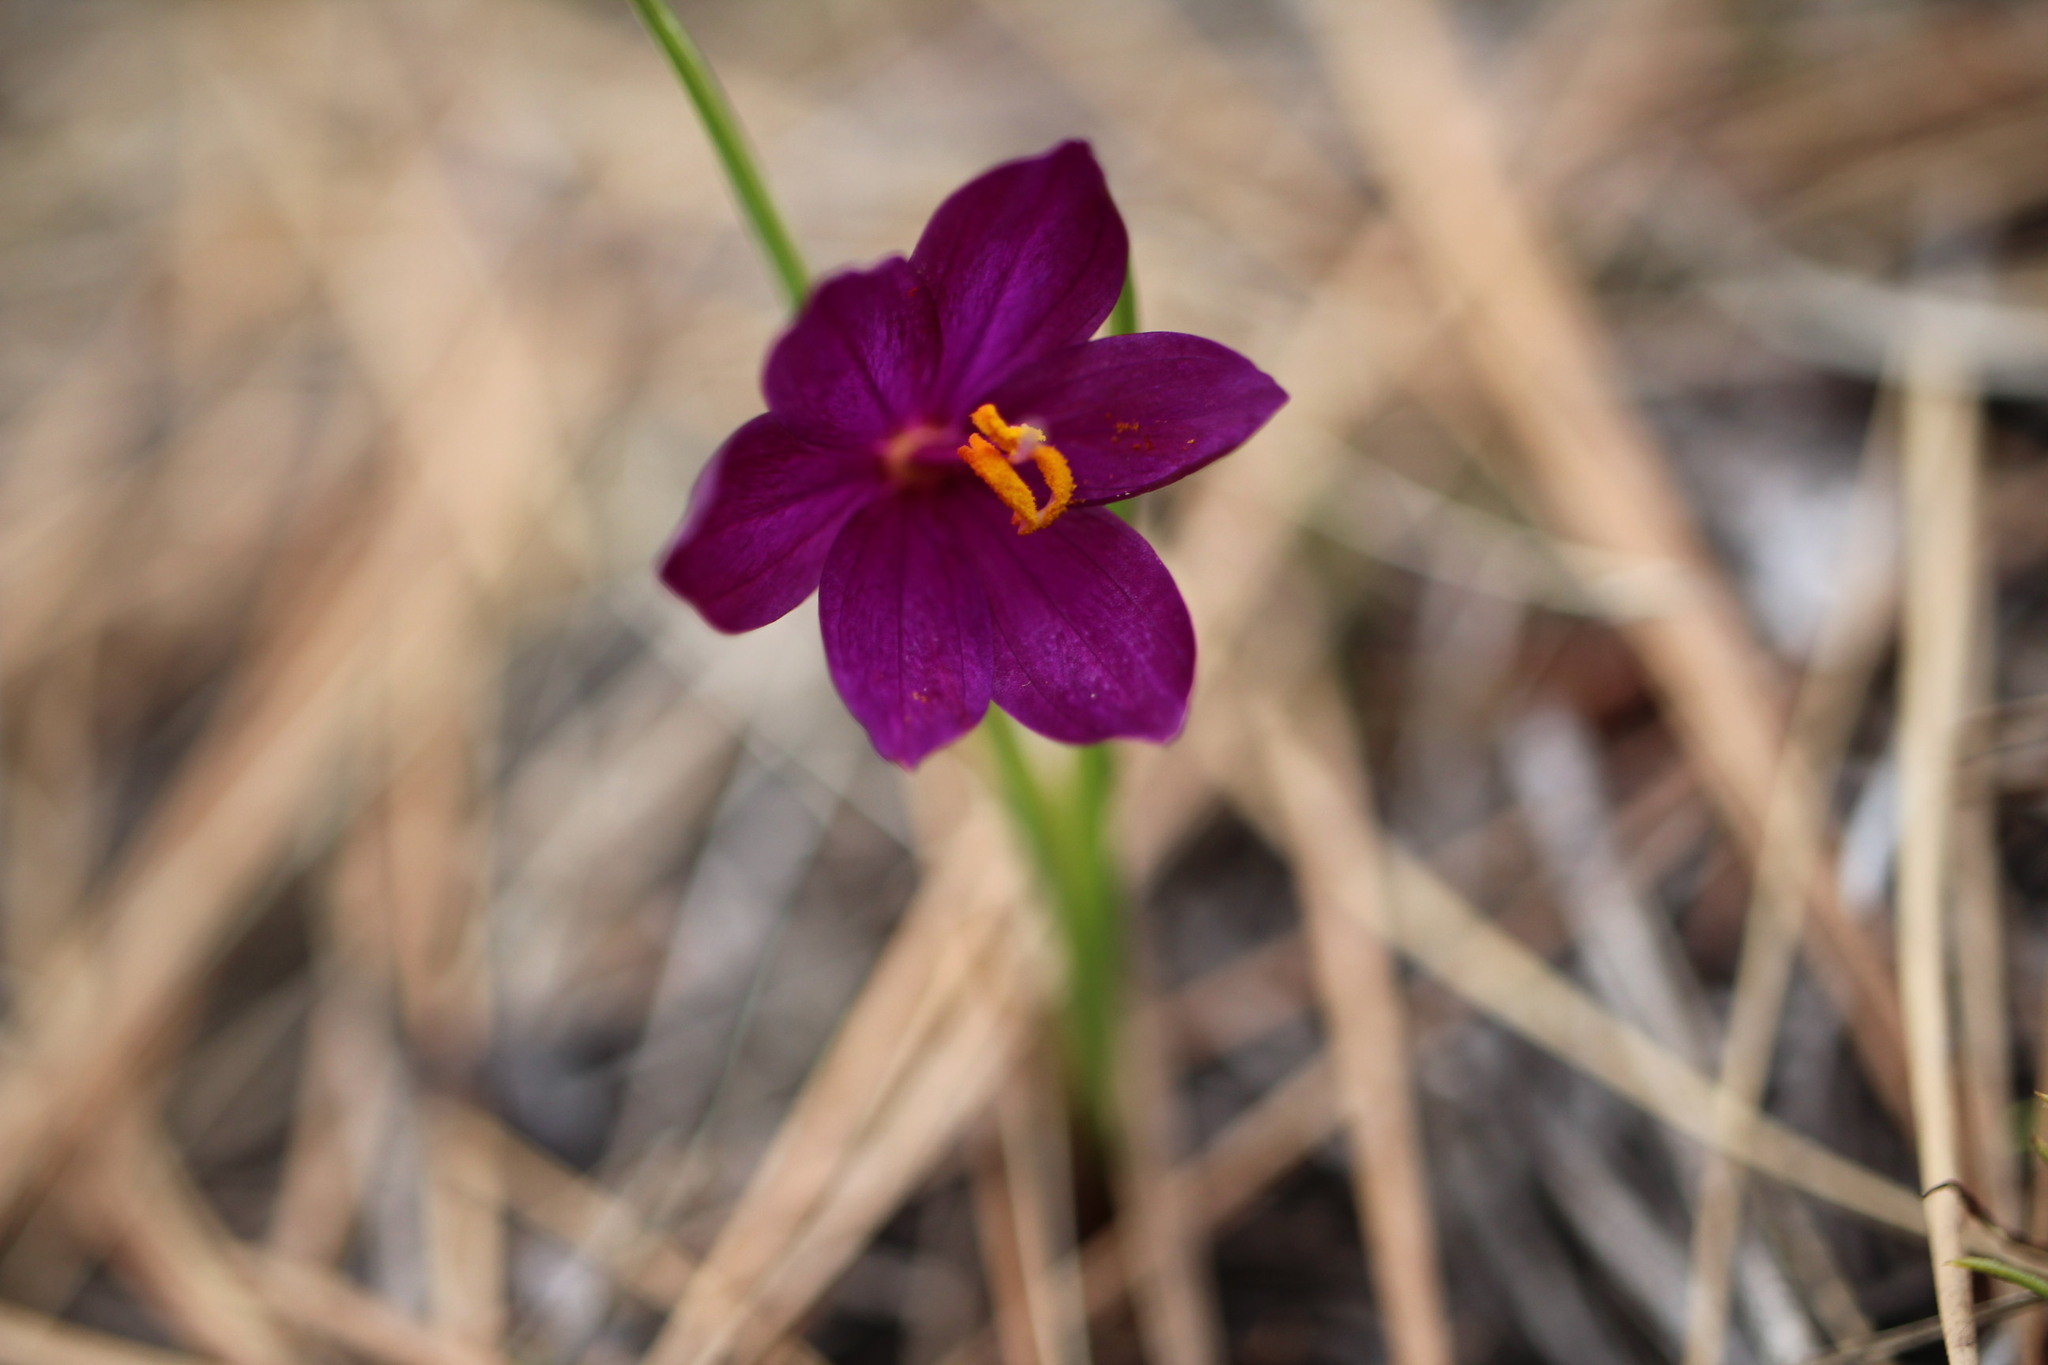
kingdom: Plantae
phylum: Tracheophyta
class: Liliopsida
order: Asparagales
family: Iridaceae
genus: Olsynium
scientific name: Olsynium douglasii
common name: Douglas' grasswidow
